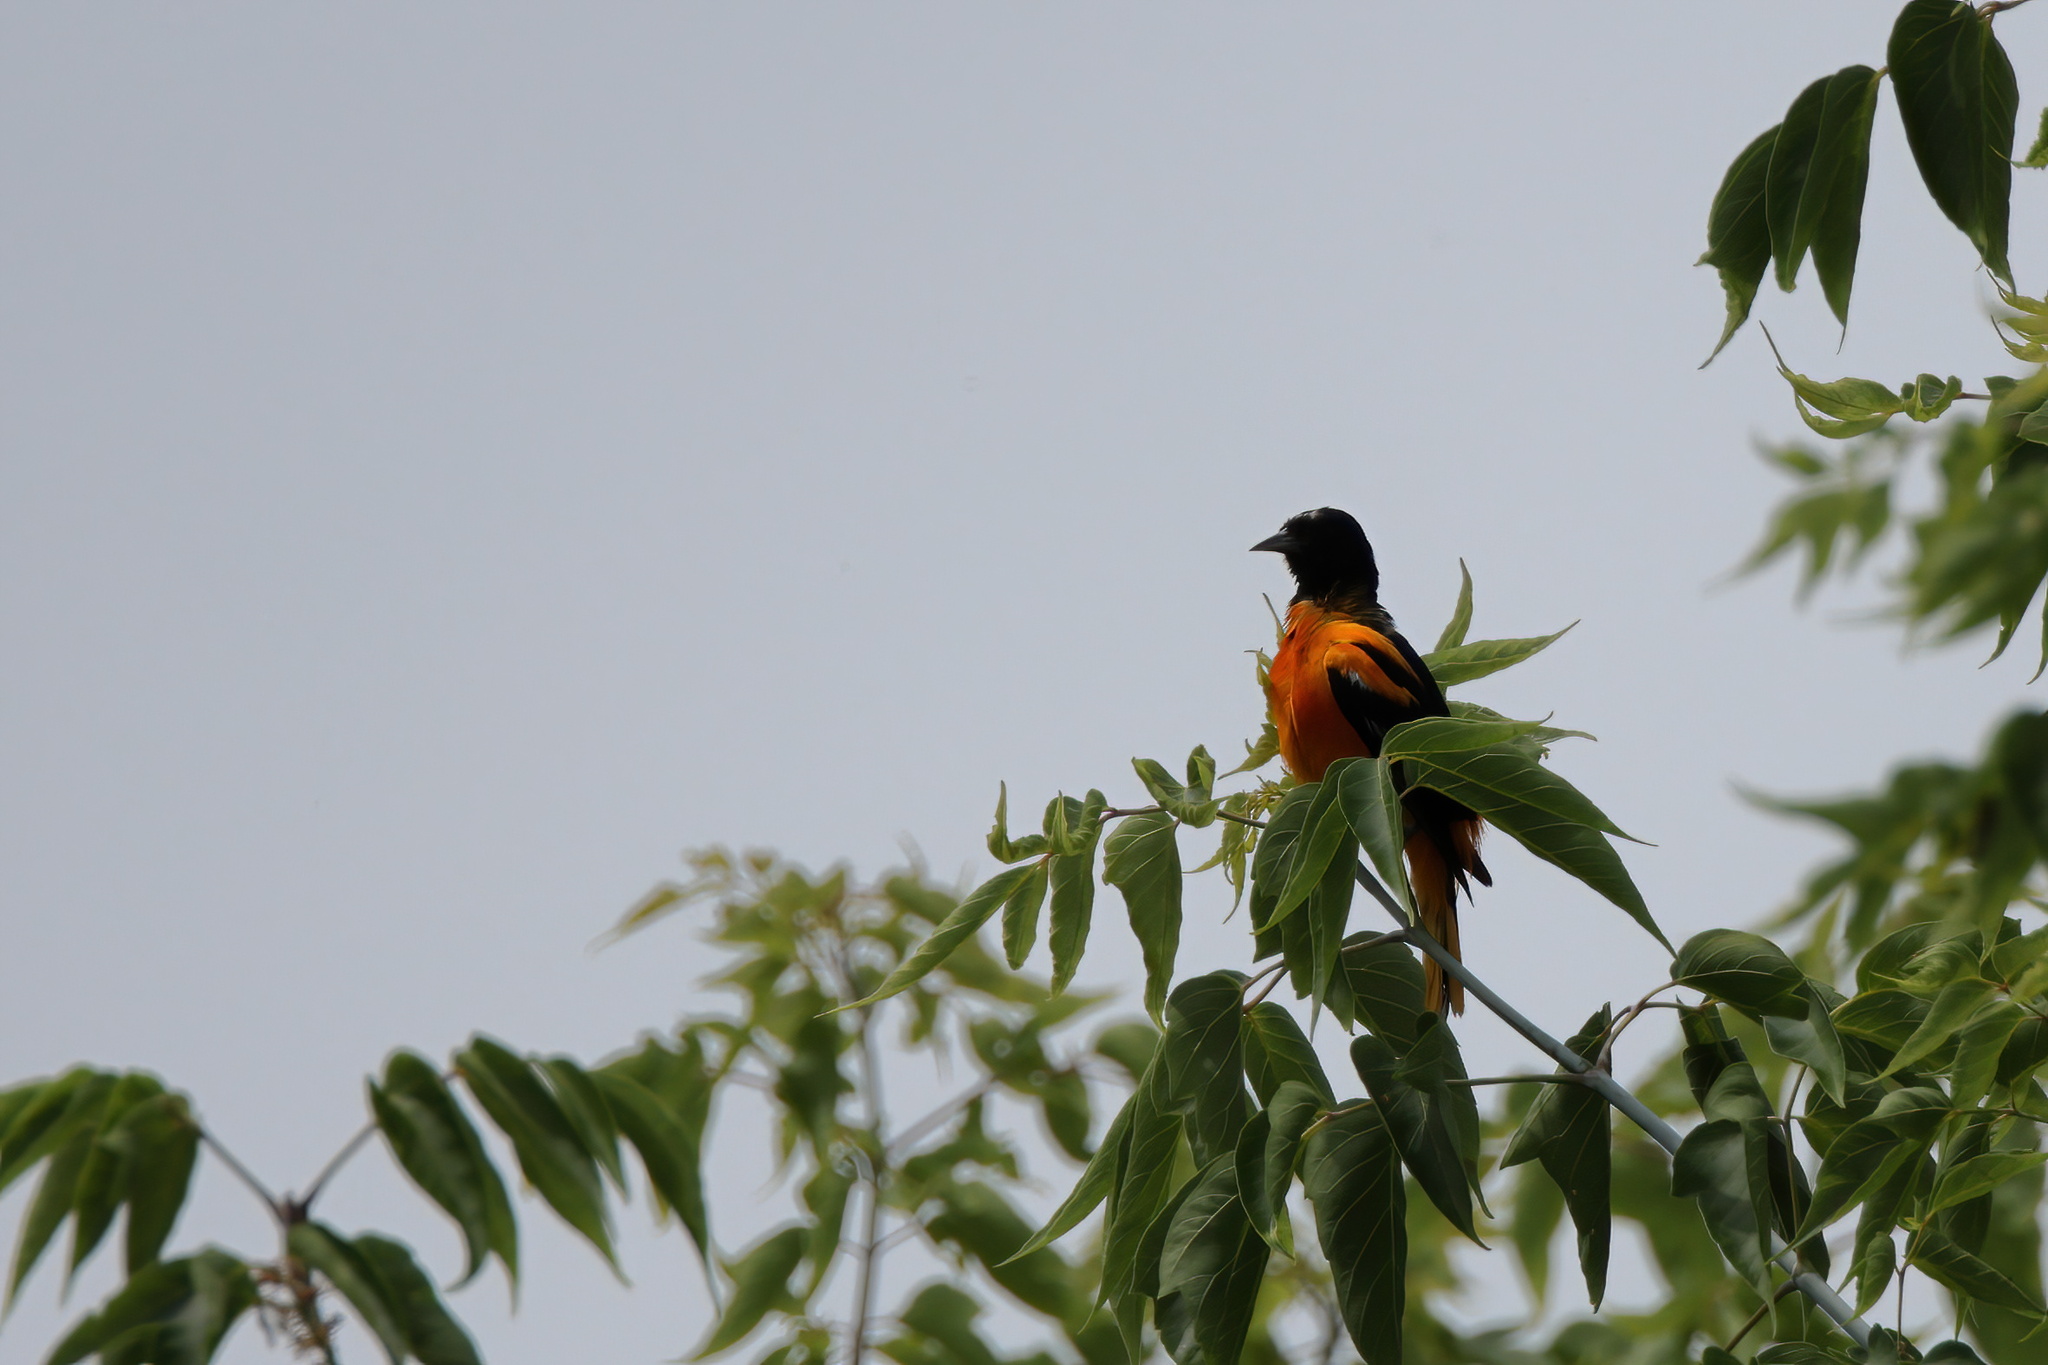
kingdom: Animalia
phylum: Chordata
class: Aves
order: Passeriformes
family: Icteridae
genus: Icterus
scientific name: Icterus galbula
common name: Baltimore oriole
